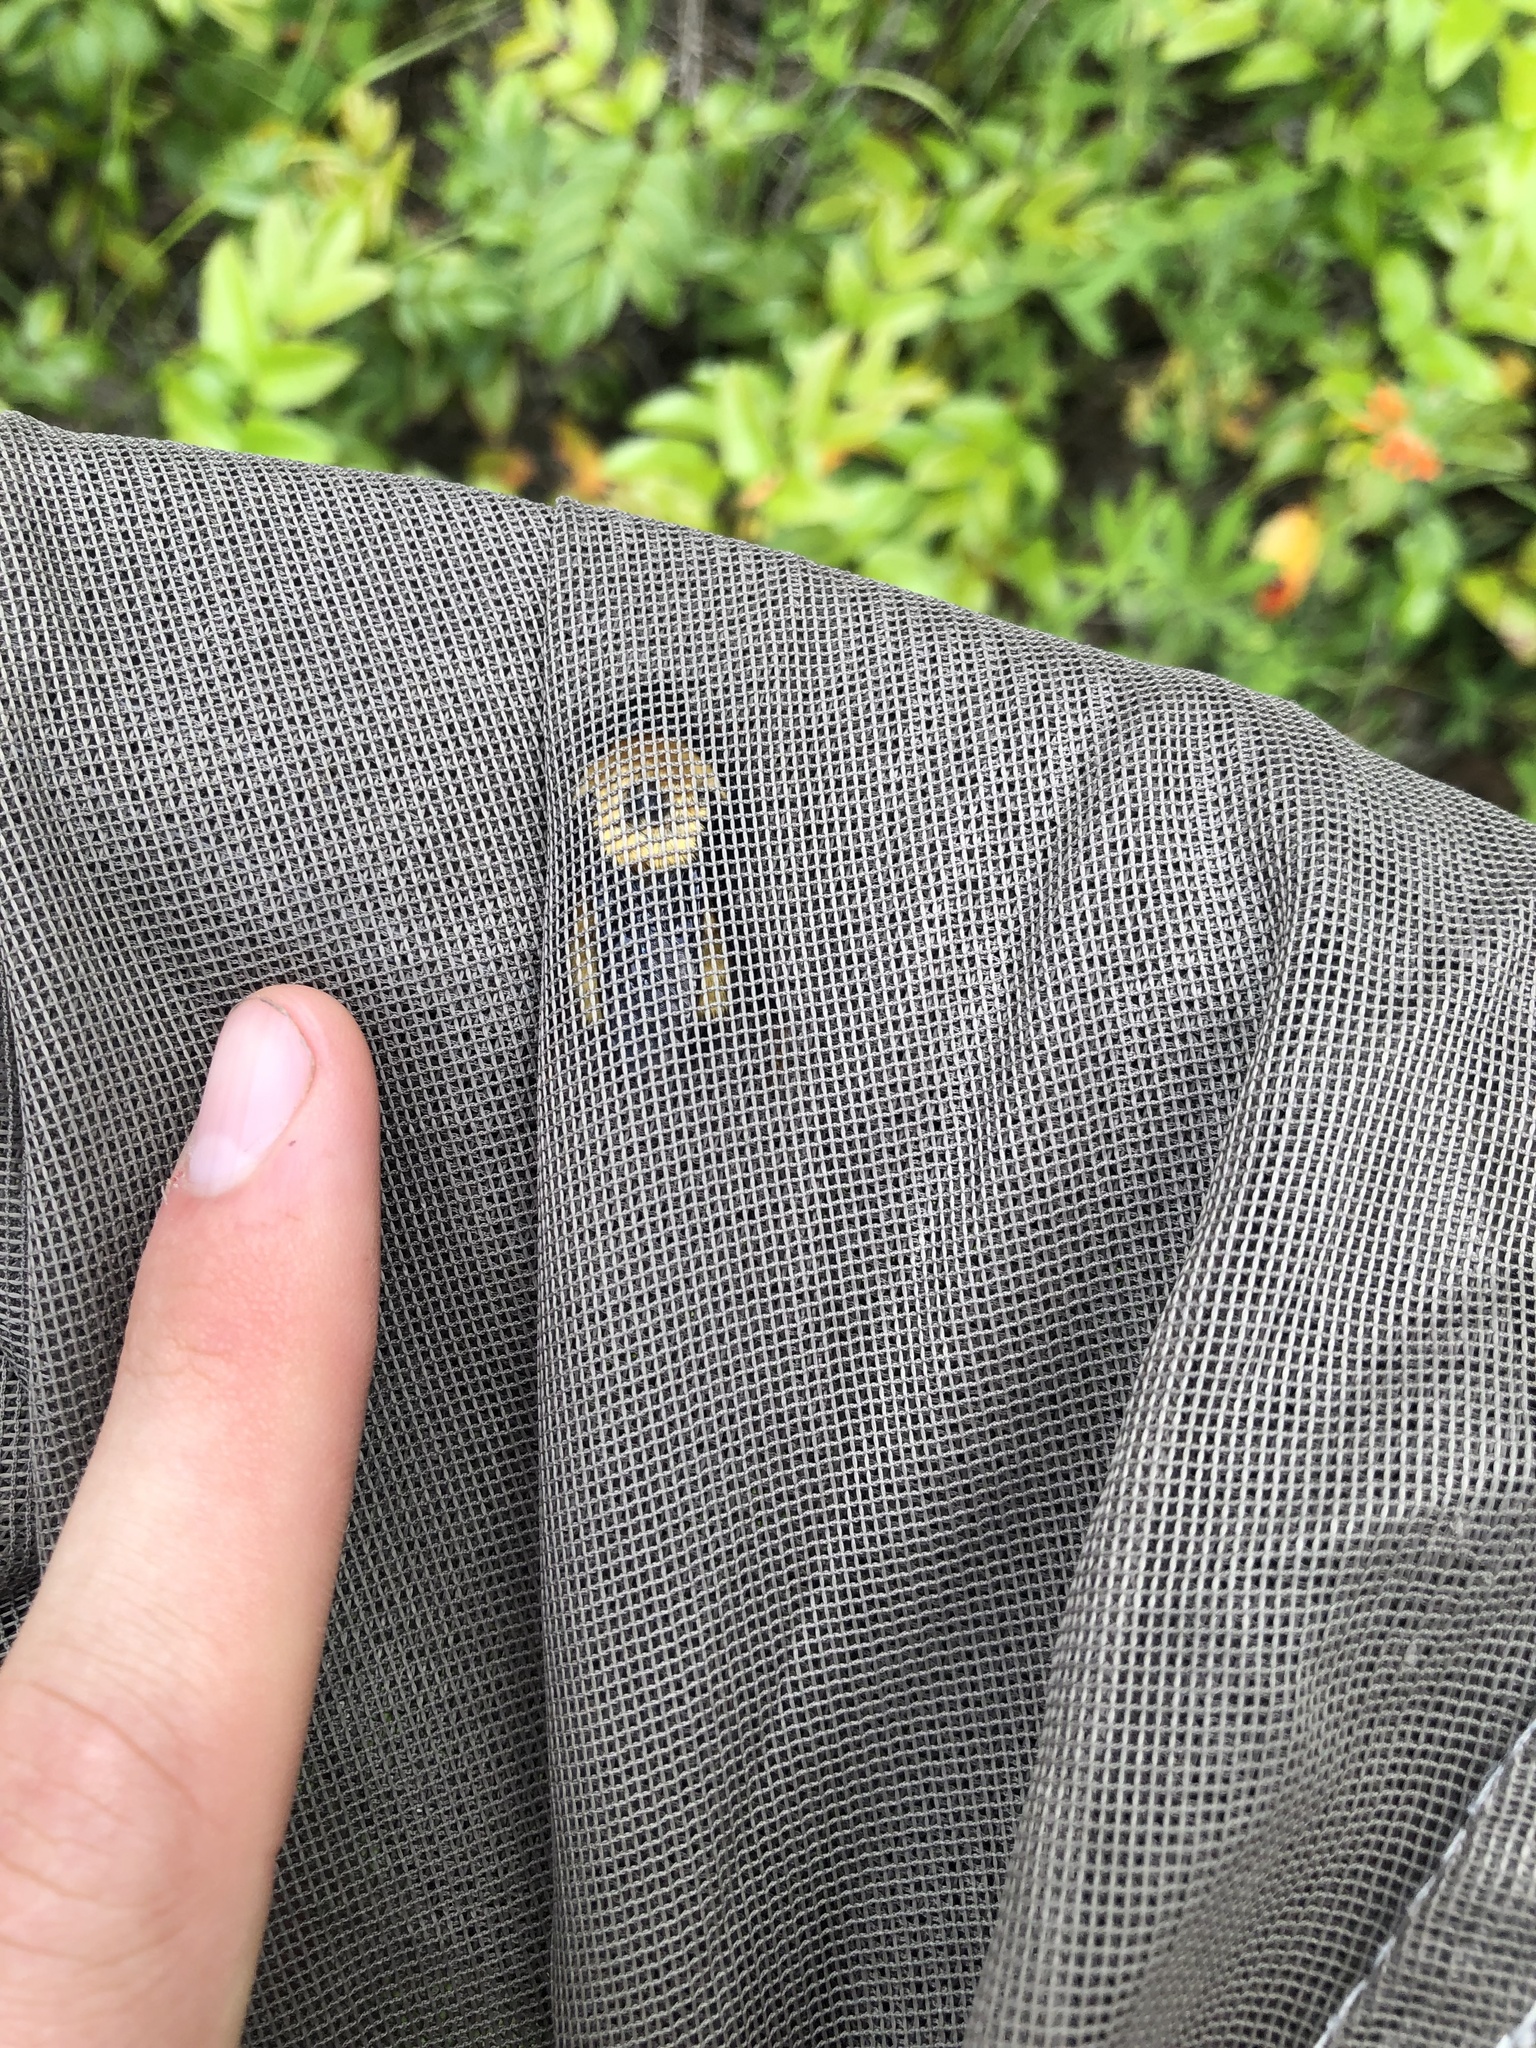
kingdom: Animalia
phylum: Arthropoda
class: Insecta
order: Hymenoptera
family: Apidae
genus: Bombus
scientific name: Bombus nevadensis
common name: Nevada bumble bee
